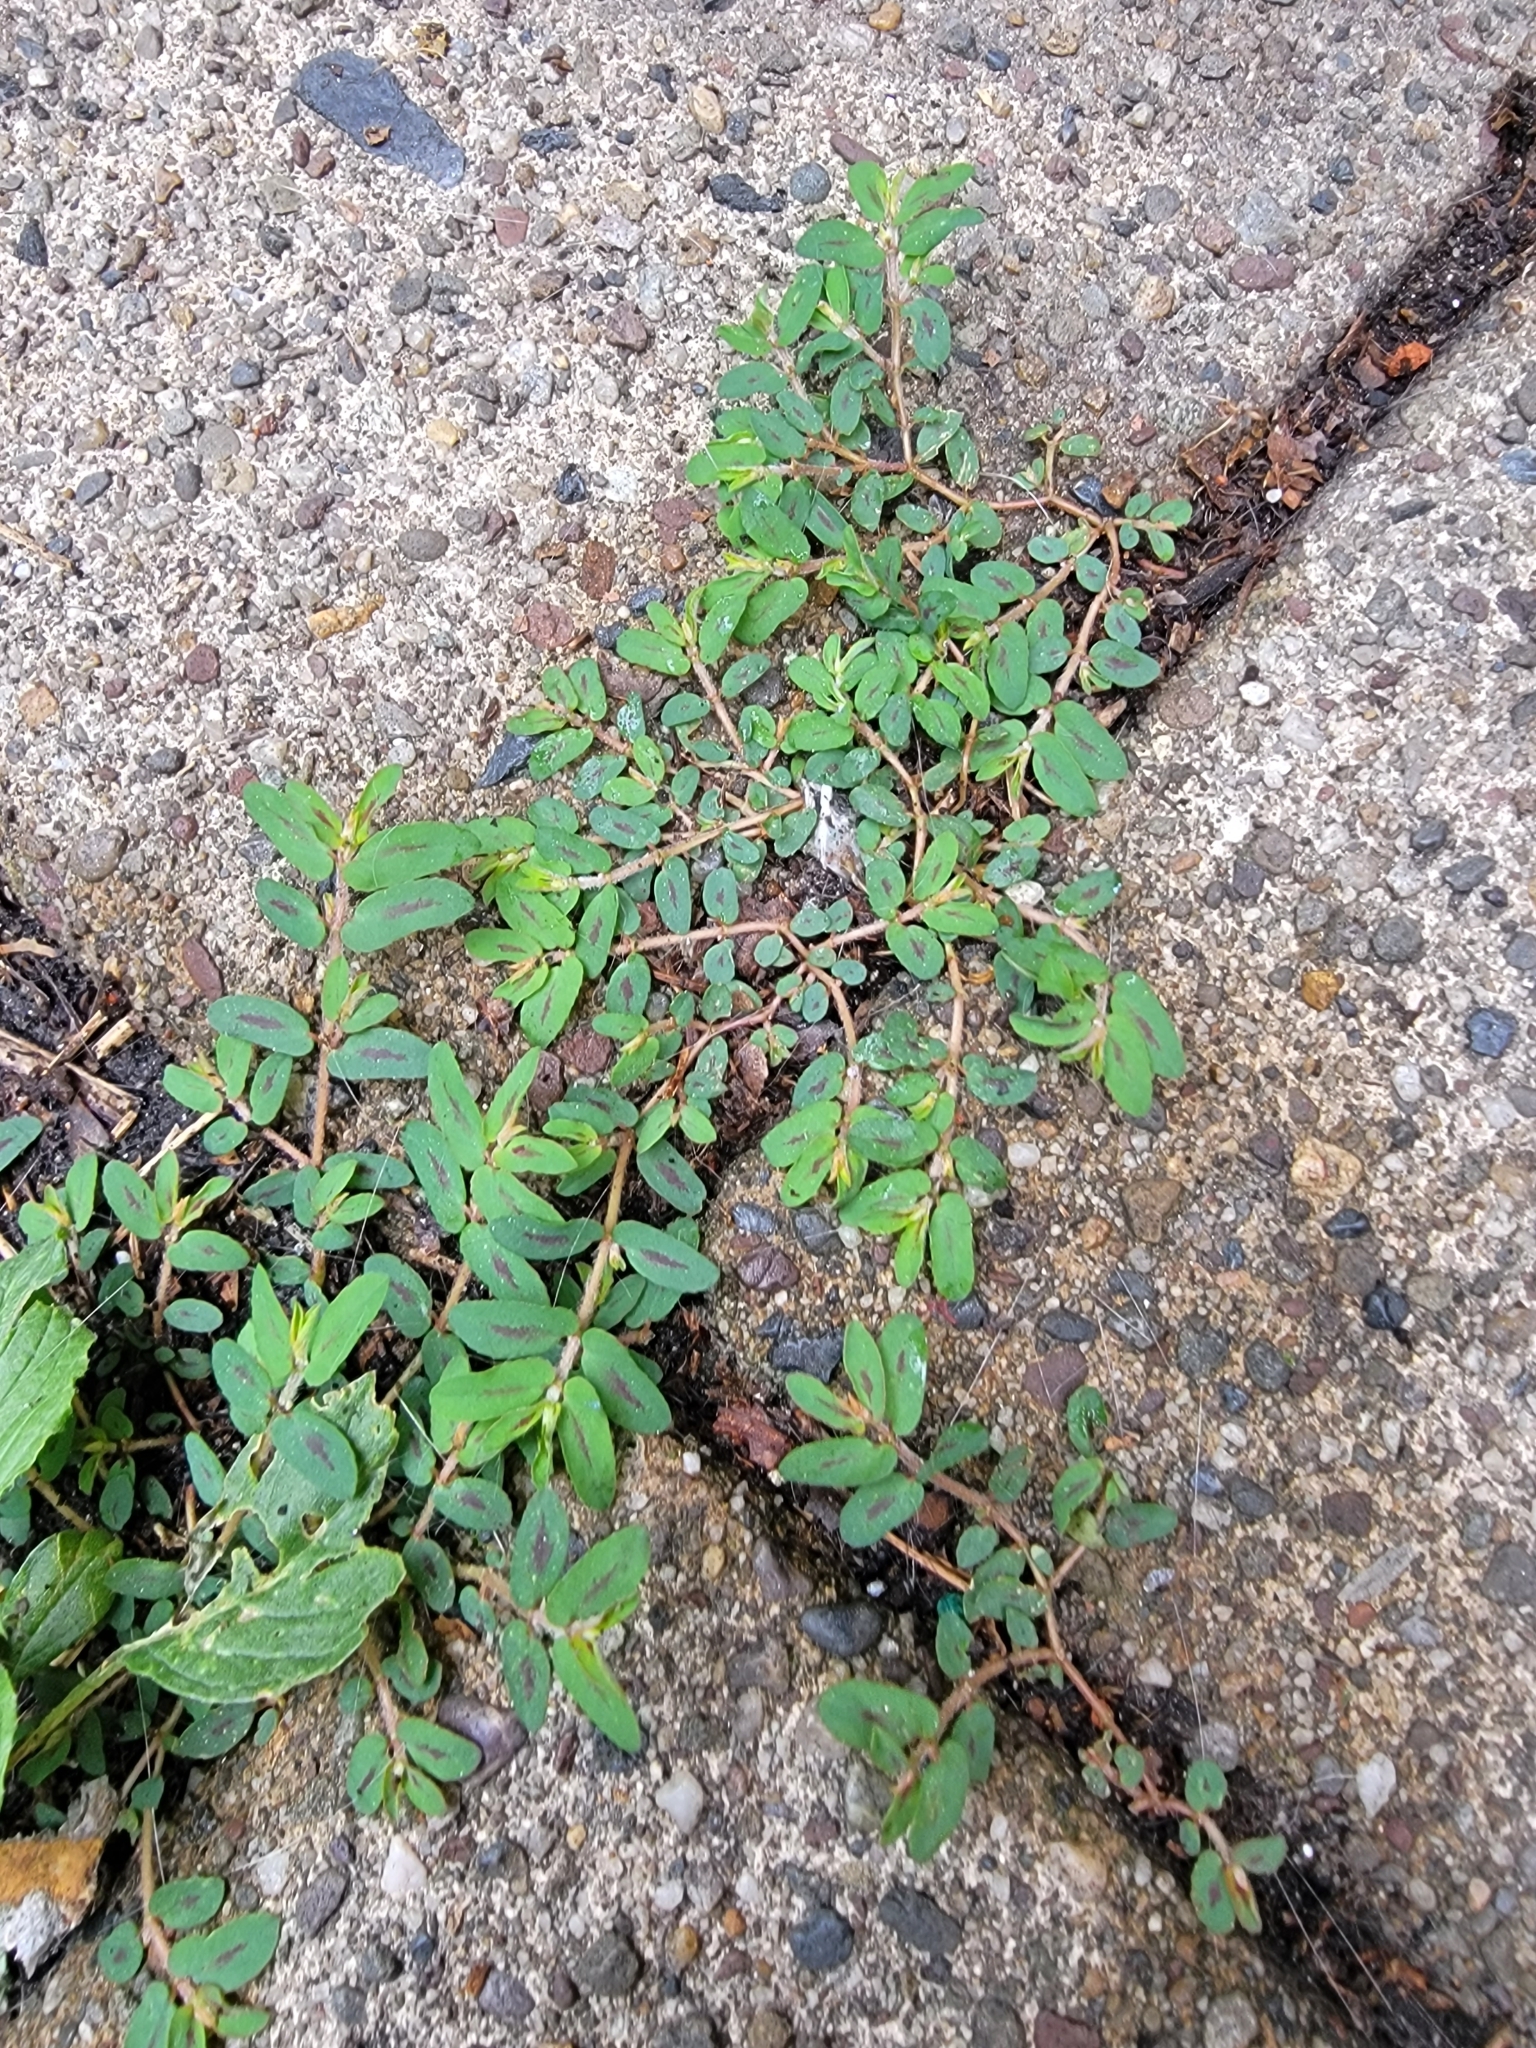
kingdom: Plantae
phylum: Tracheophyta
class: Magnoliopsida
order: Malpighiales
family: Euphorbiaceae
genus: Euphorbia
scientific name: Euphorbia maculata
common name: Spotted spurge
